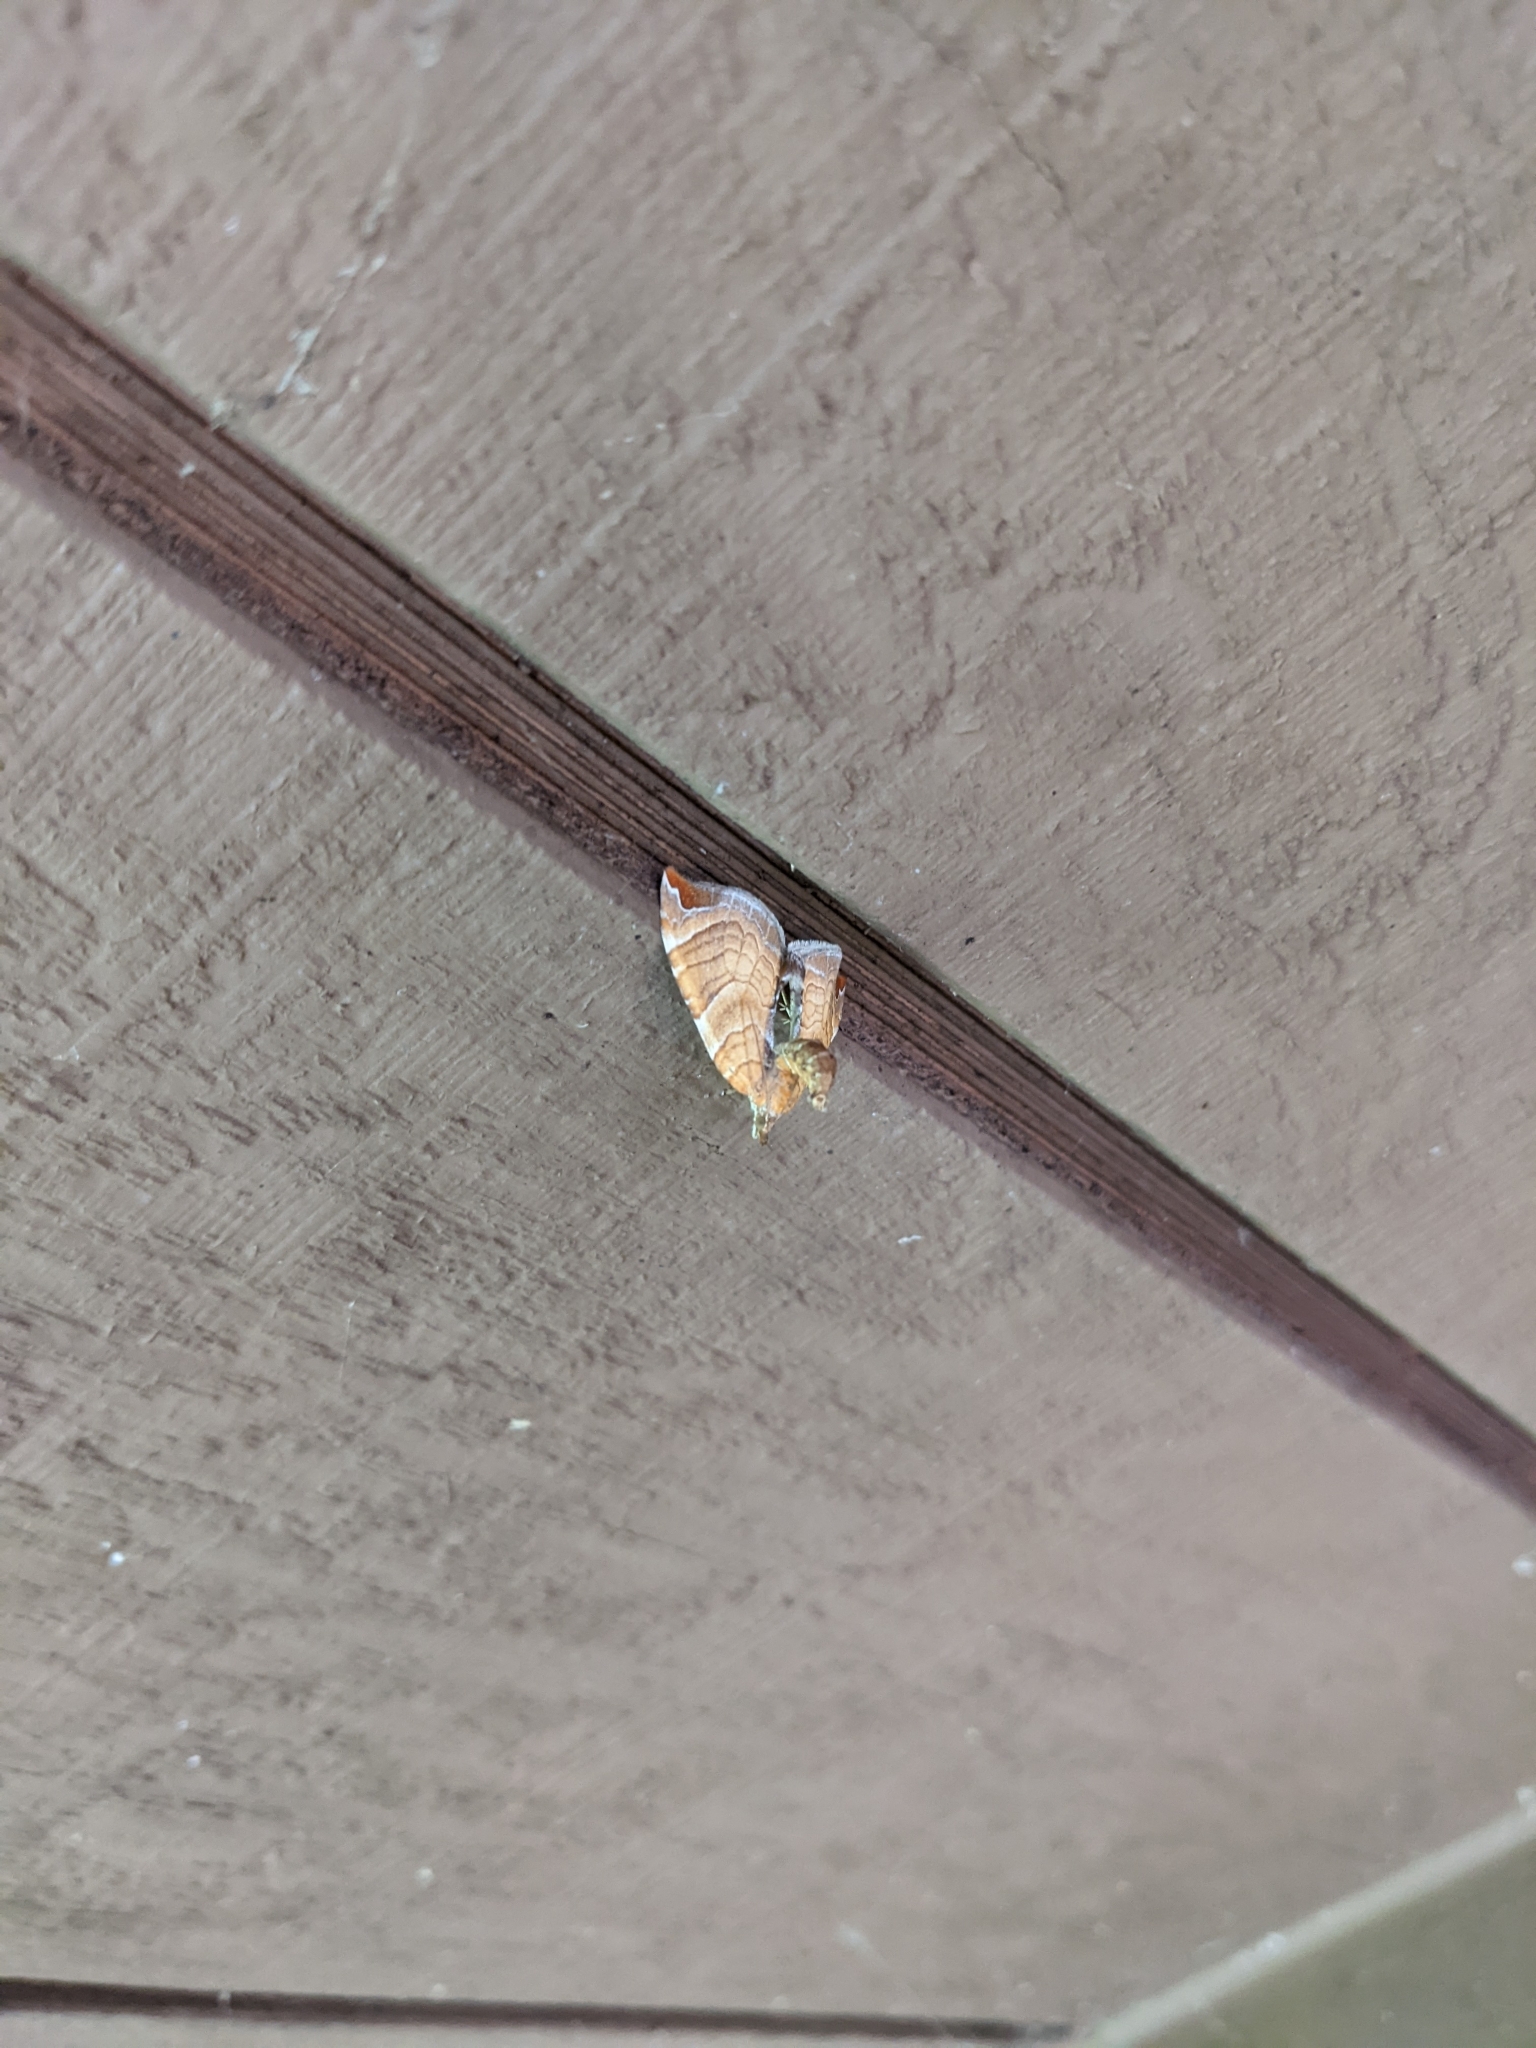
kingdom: Animalia
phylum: Arthropoda
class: Insecta
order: Lepidoptera
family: Geometridae
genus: Eulithis
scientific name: Eulithis molliculata
